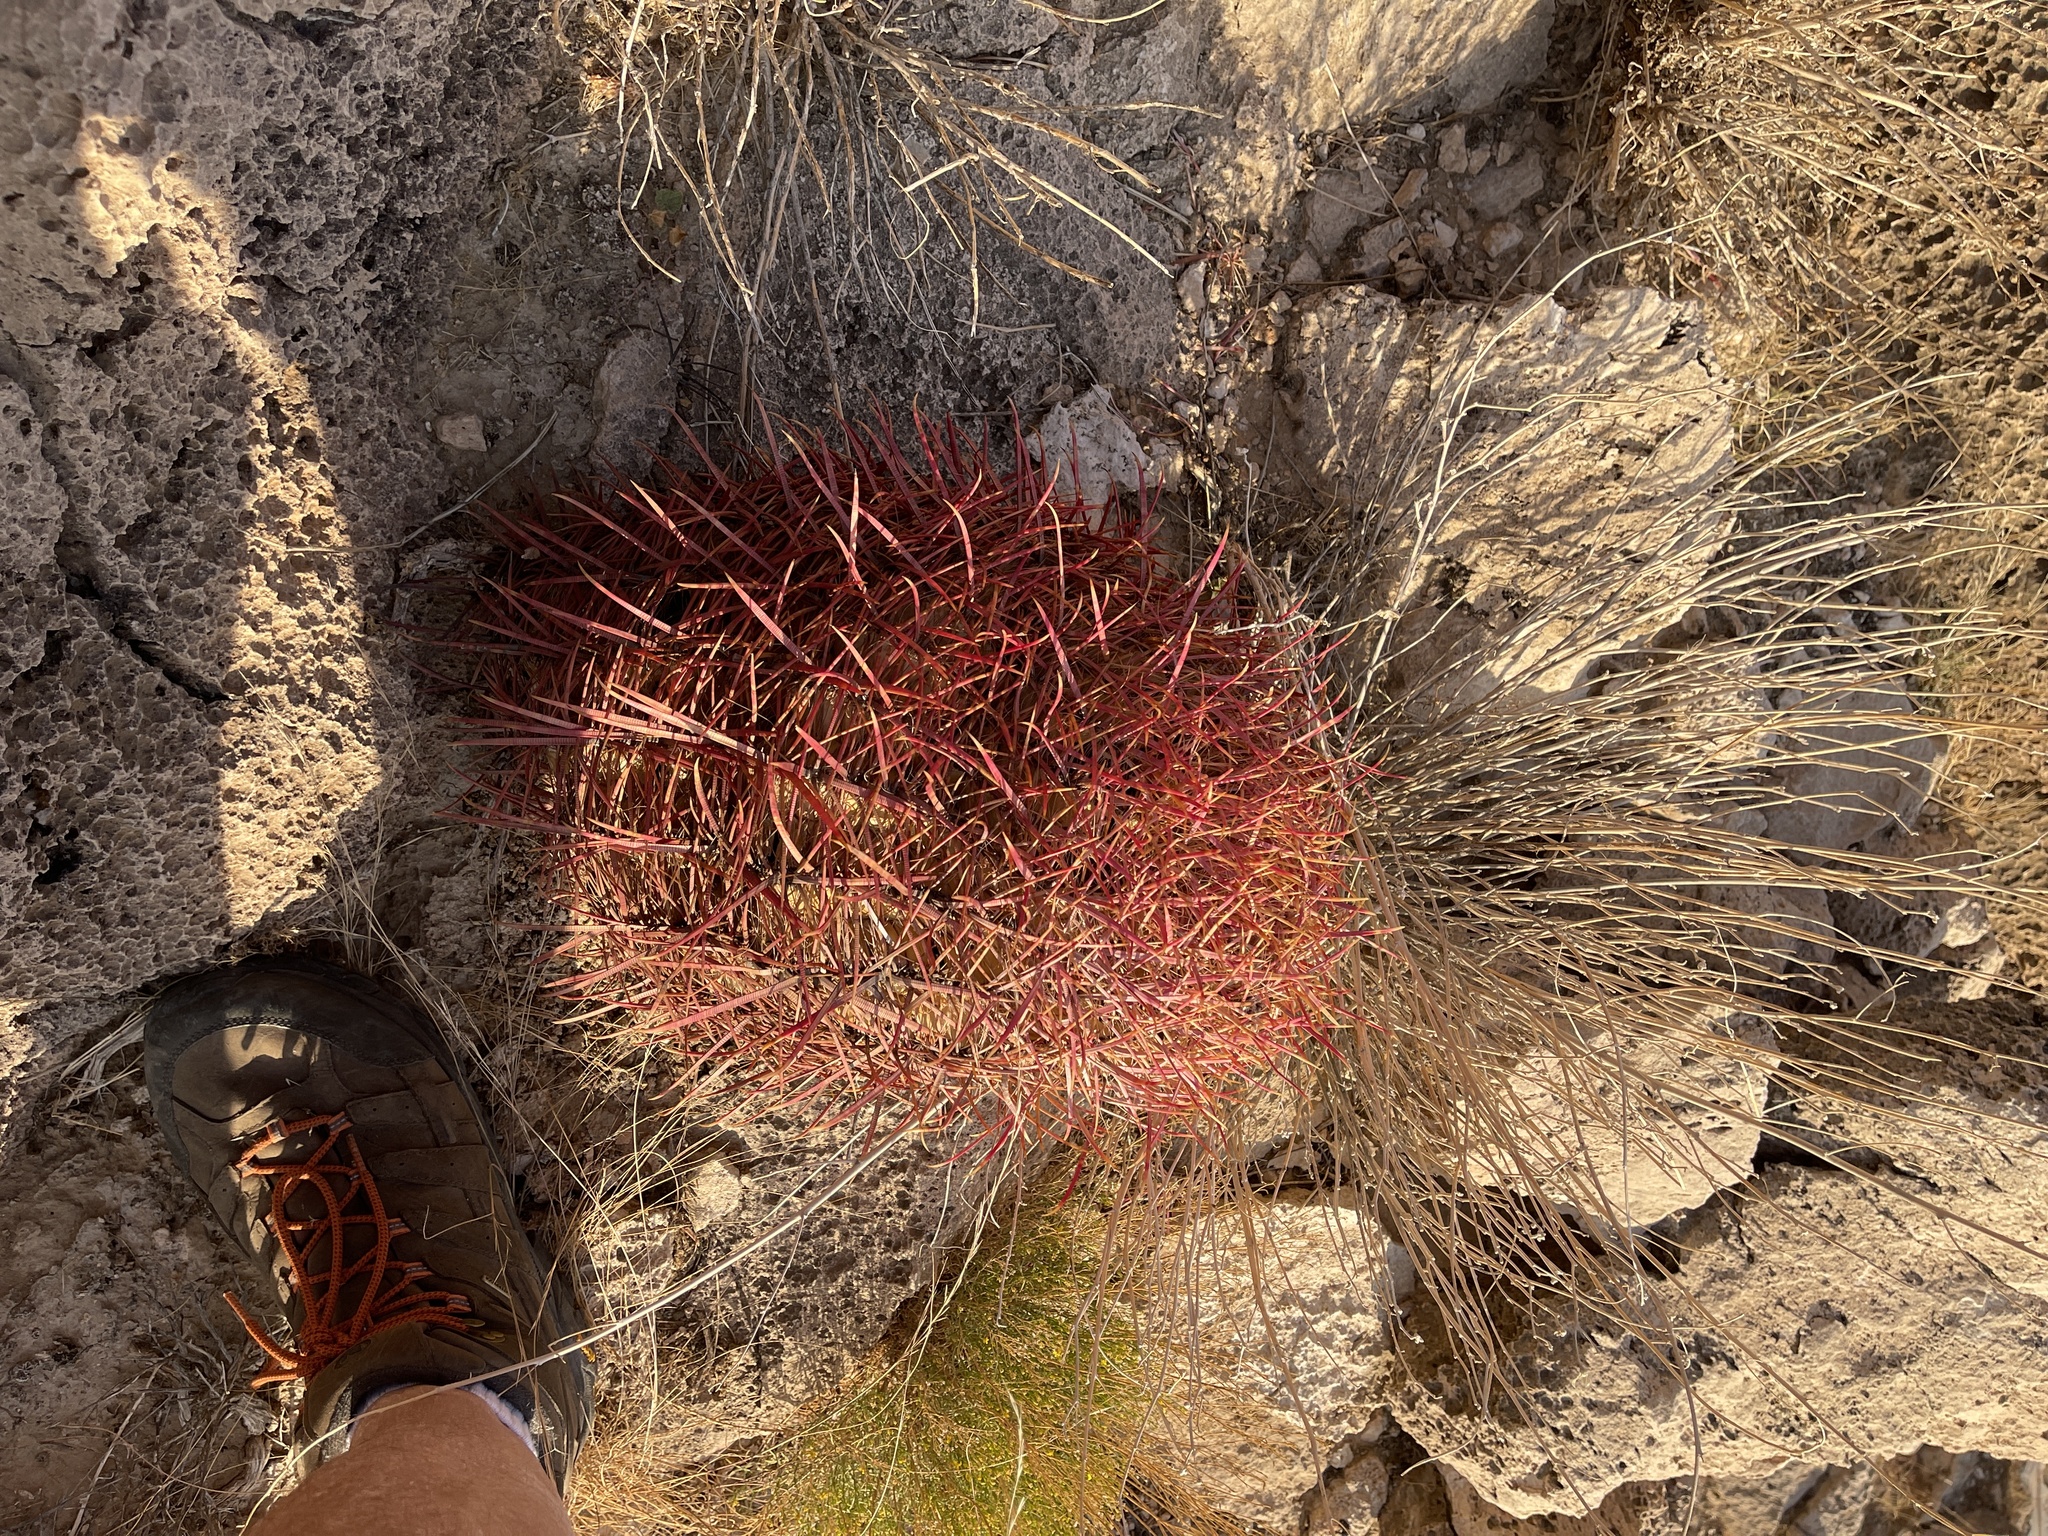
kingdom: Plantae
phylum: Tracheophyta
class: Magnoliopsida
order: Caryophyllales
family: Cactaceae
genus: Ferocactus
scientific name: Ferocactus cylindraceus
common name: California barrel cactus
